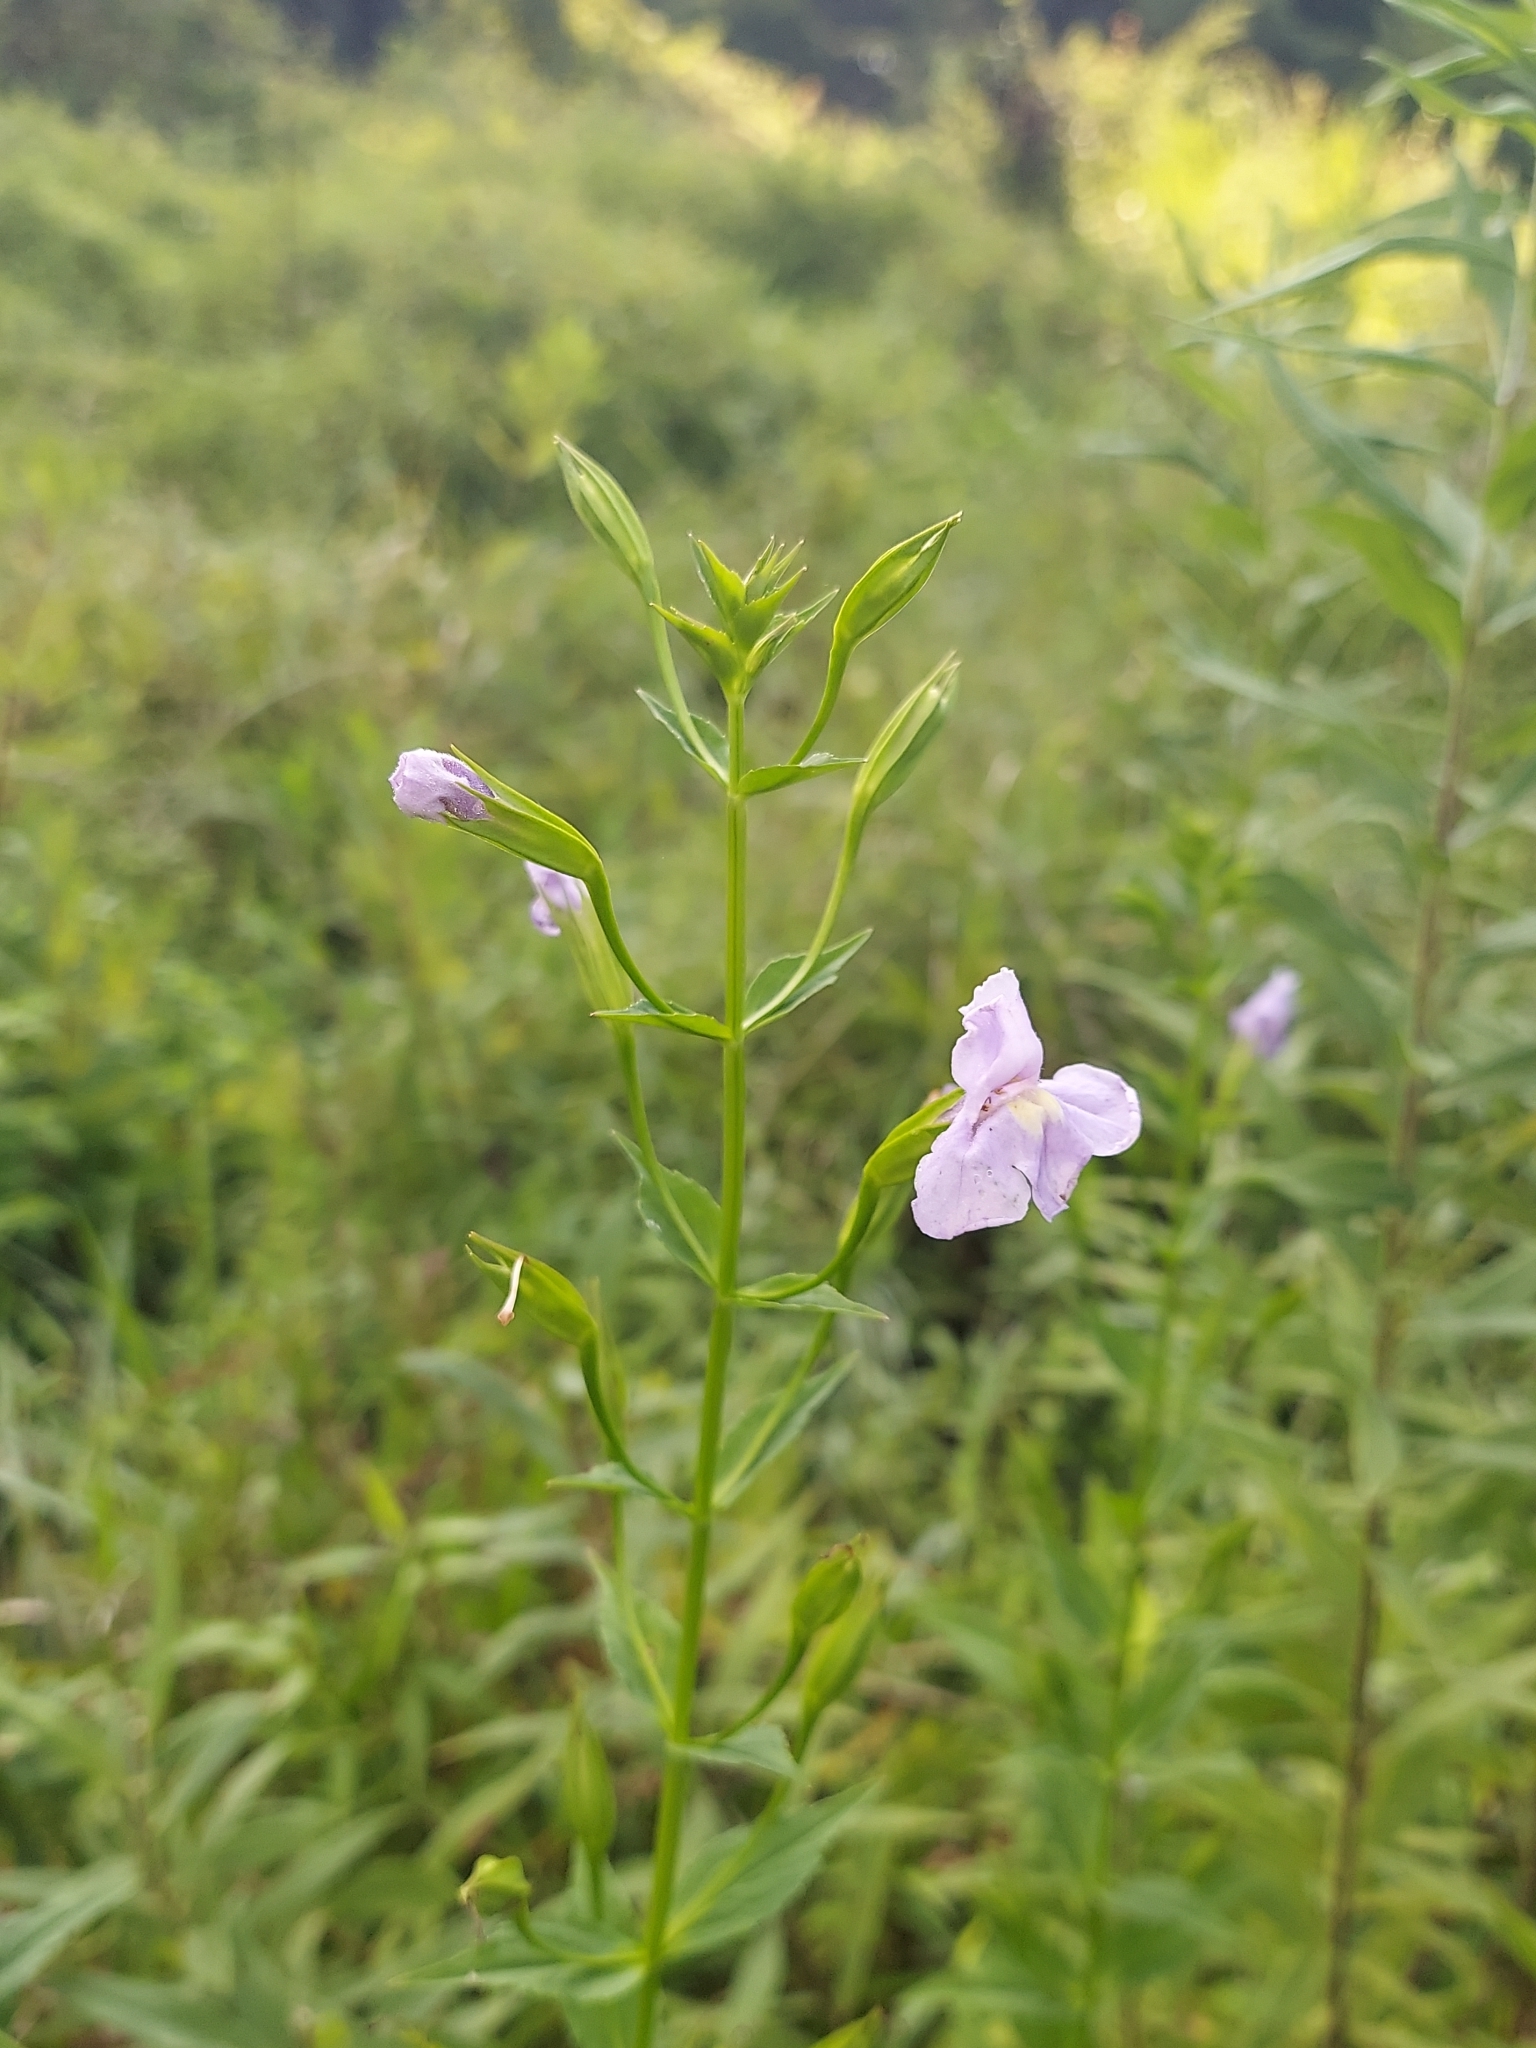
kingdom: Plantae
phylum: Tracheophyta
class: Magnoliopsida
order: Lamiales
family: Phrymaceae
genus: Mimulus
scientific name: Mimulus ringens
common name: Allegheny monkeyflower
